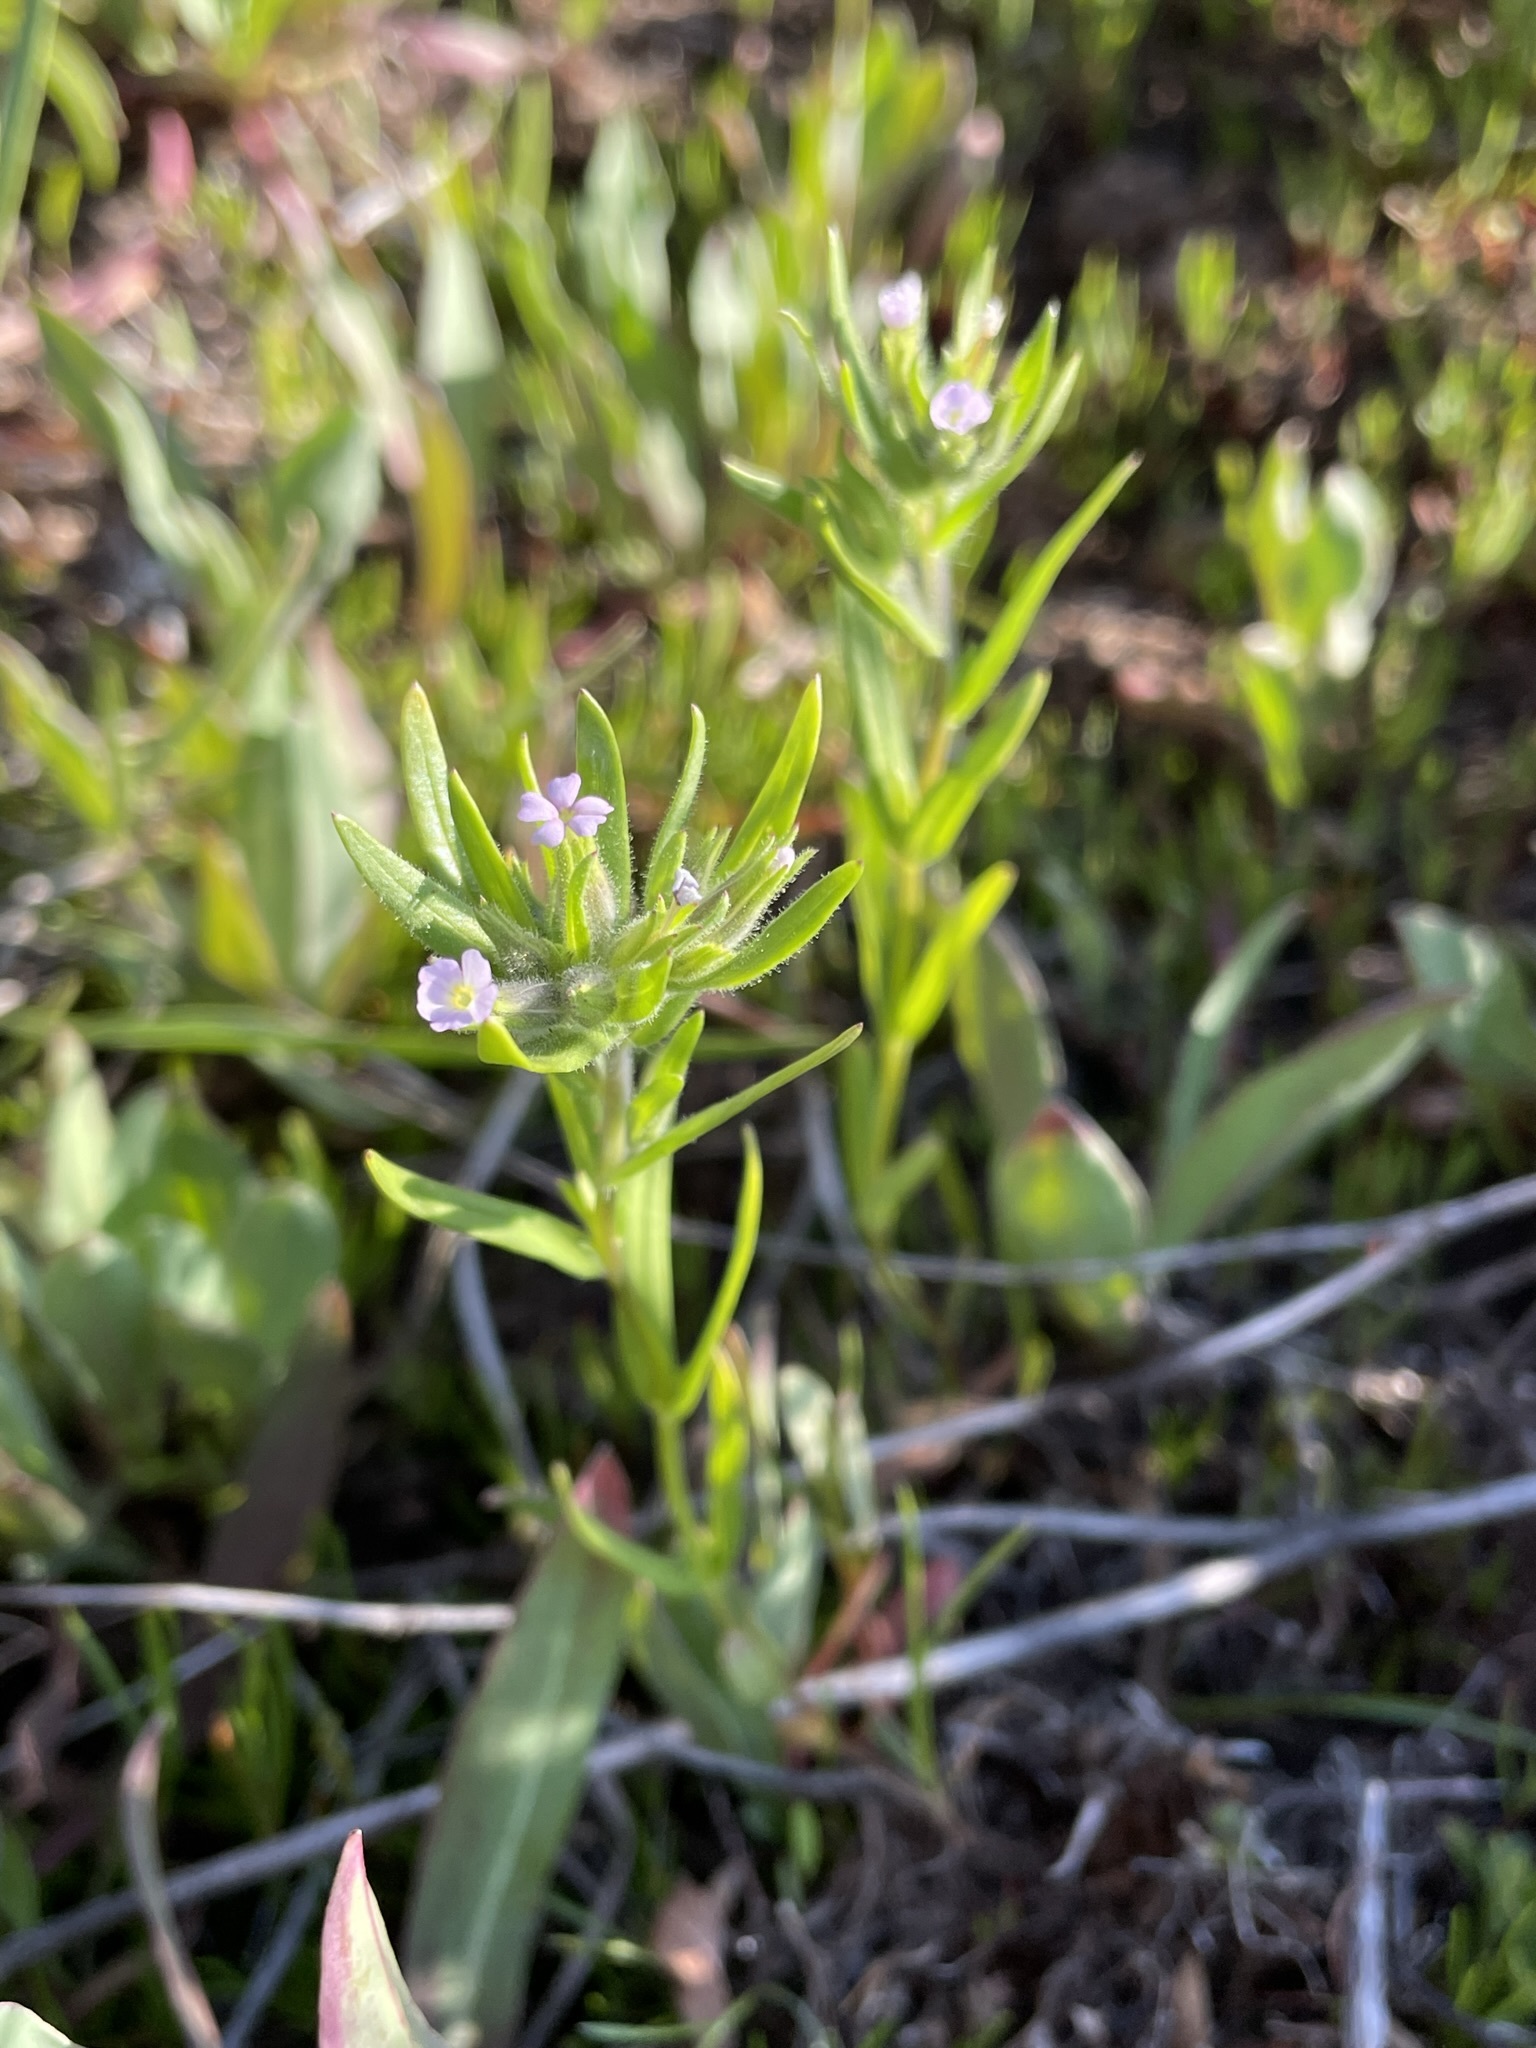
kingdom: Plantae
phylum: Tracheophyta
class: Magnoliopsida
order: Ericales
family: Polemoniaceae
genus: Phlox
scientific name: Phlox gracilis
